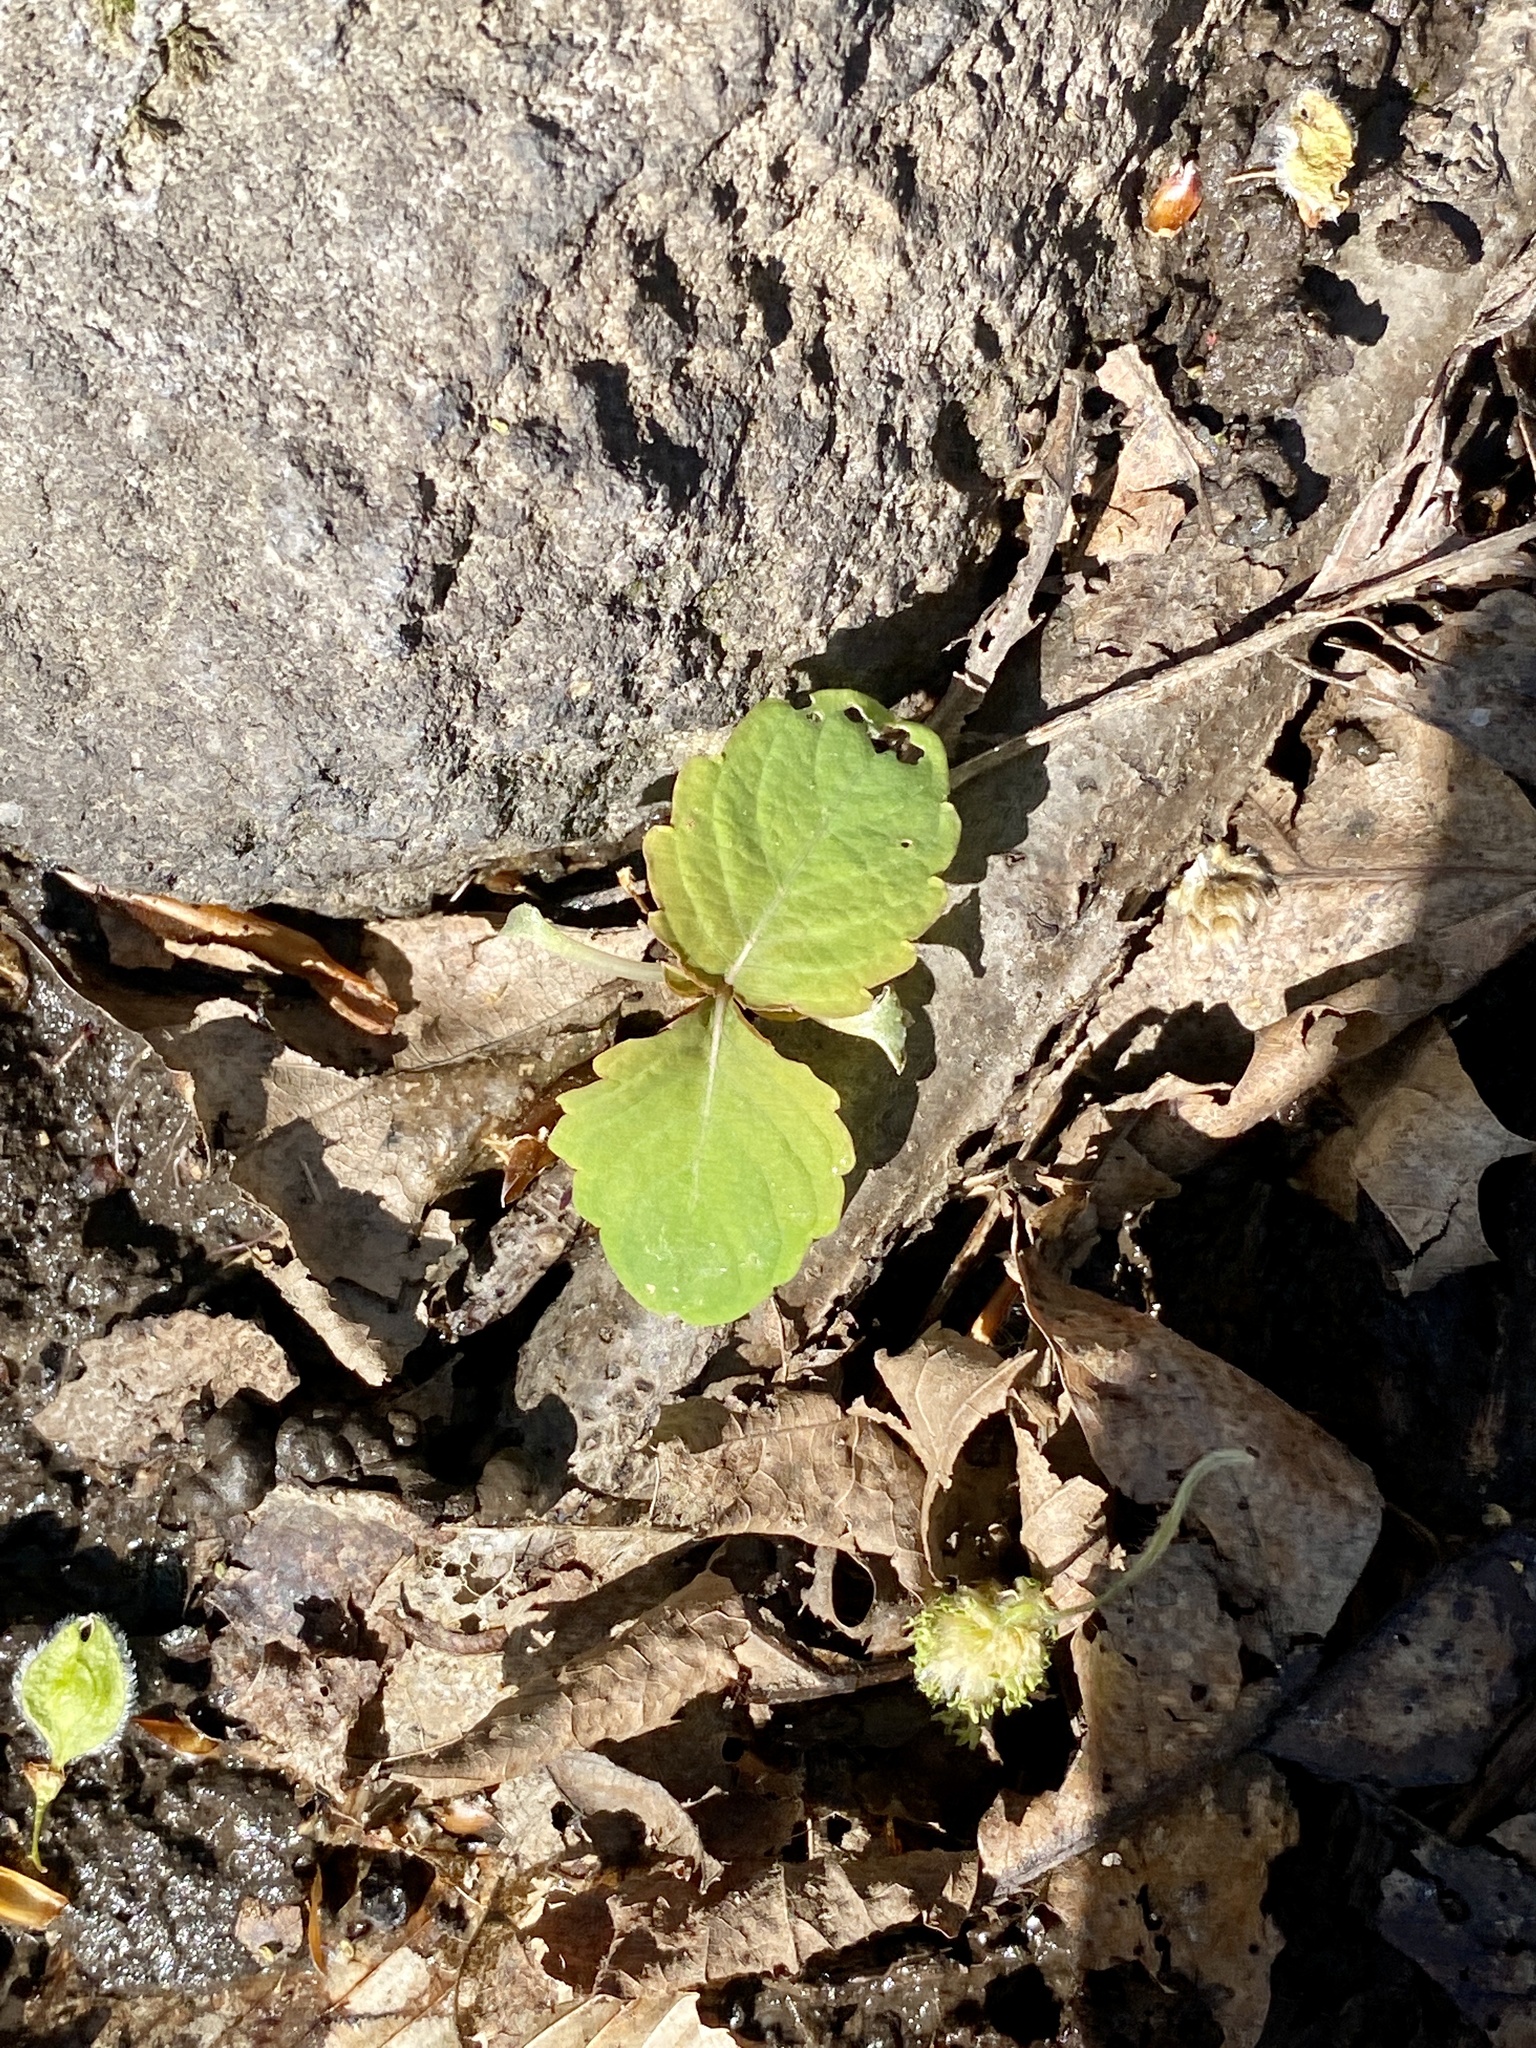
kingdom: Plantae
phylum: Tracheophyta
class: Magnoliopsida
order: Ericales
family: Balsaminaceae
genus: Impatiens
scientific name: Impatiens capensis
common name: Orange balsam
